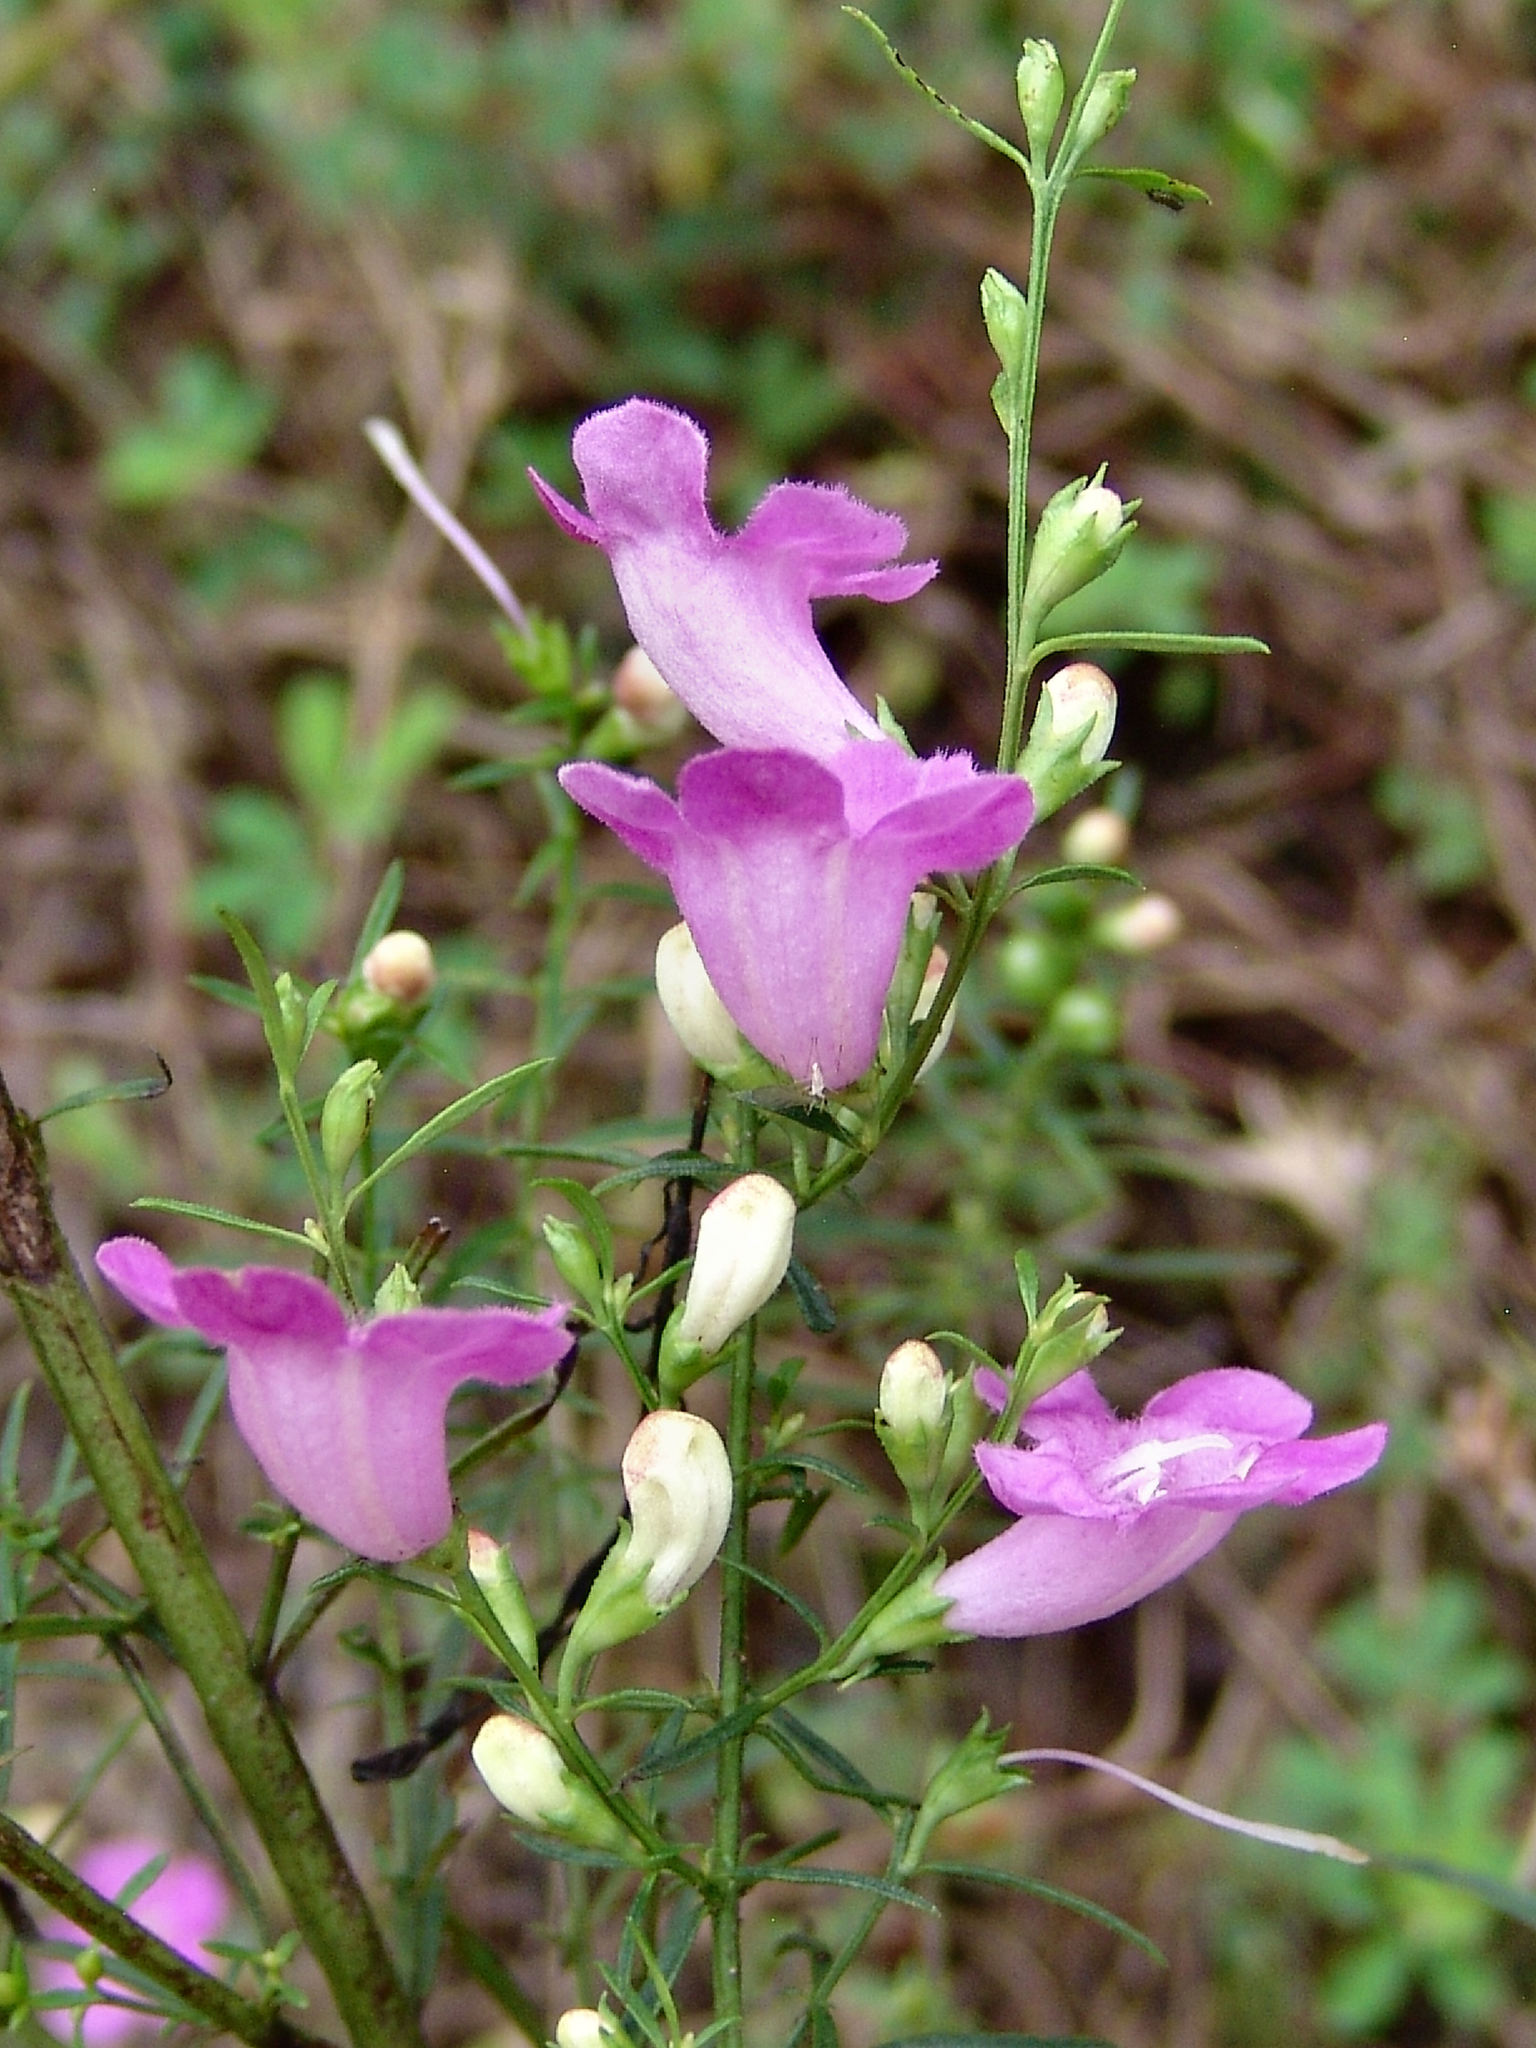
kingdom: Plantae
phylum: Tracheophyta
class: Magnoliopsida
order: Lamiales
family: Orobanchaceae
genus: Agalinis
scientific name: Agalinis fasciculata
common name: Beach false foxglove
